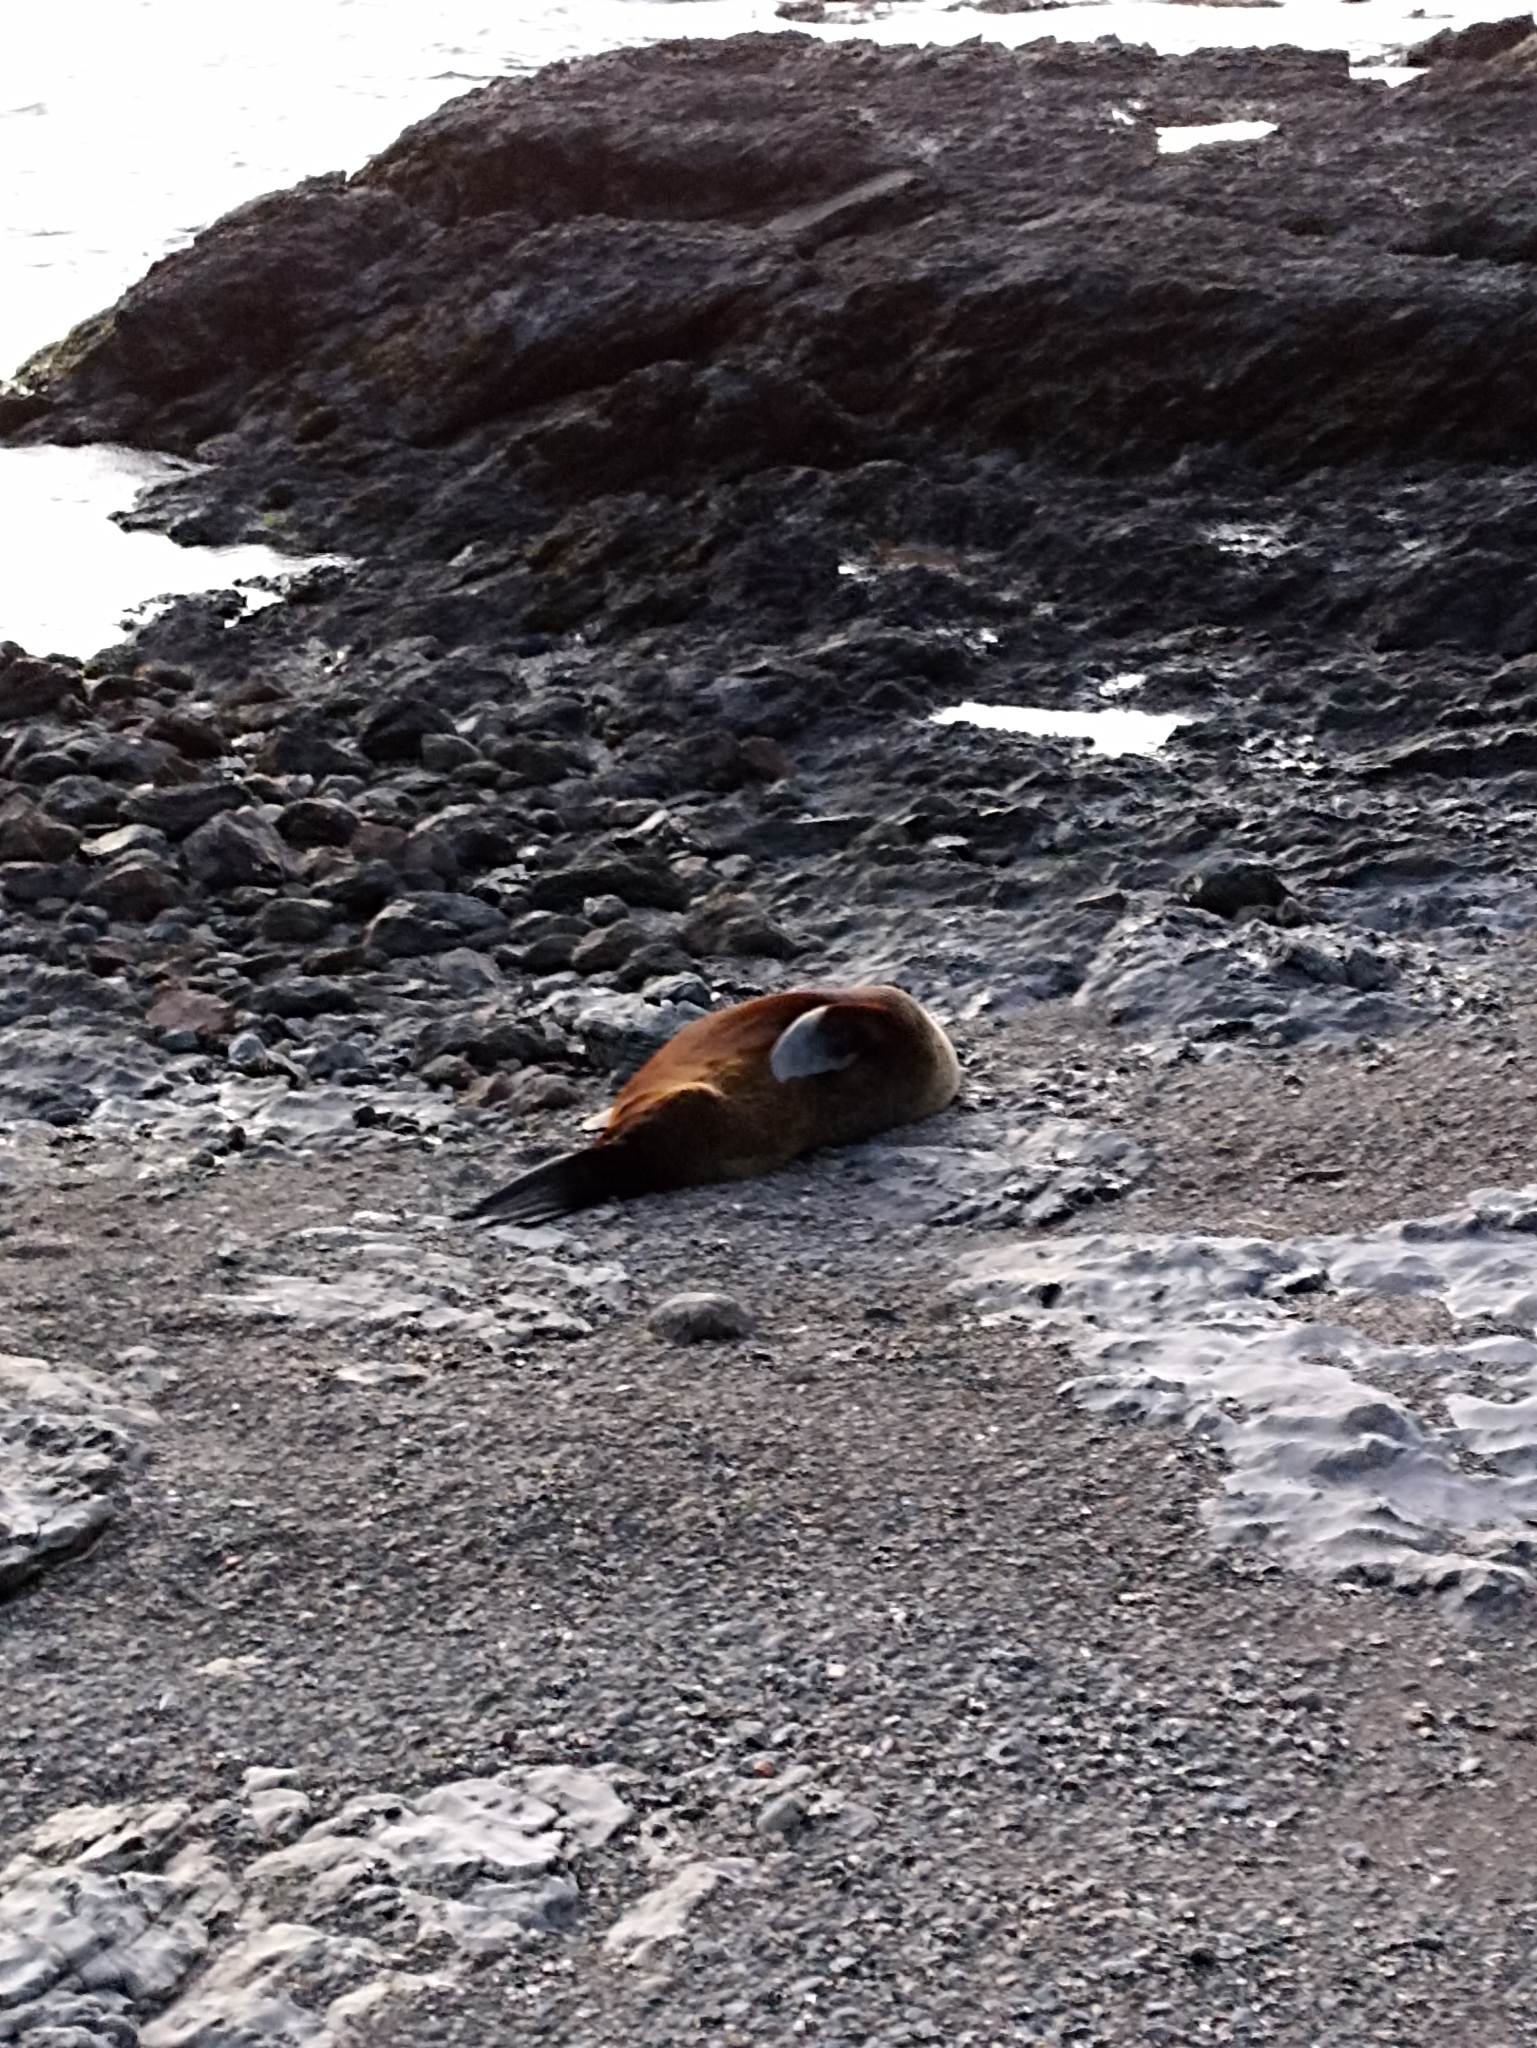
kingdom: Animalia
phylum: Chordata
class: Mammalia
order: Carnivora
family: Otariidae
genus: Arctocephalus
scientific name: Arctocephalus forsteri
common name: New zealand fur seal
